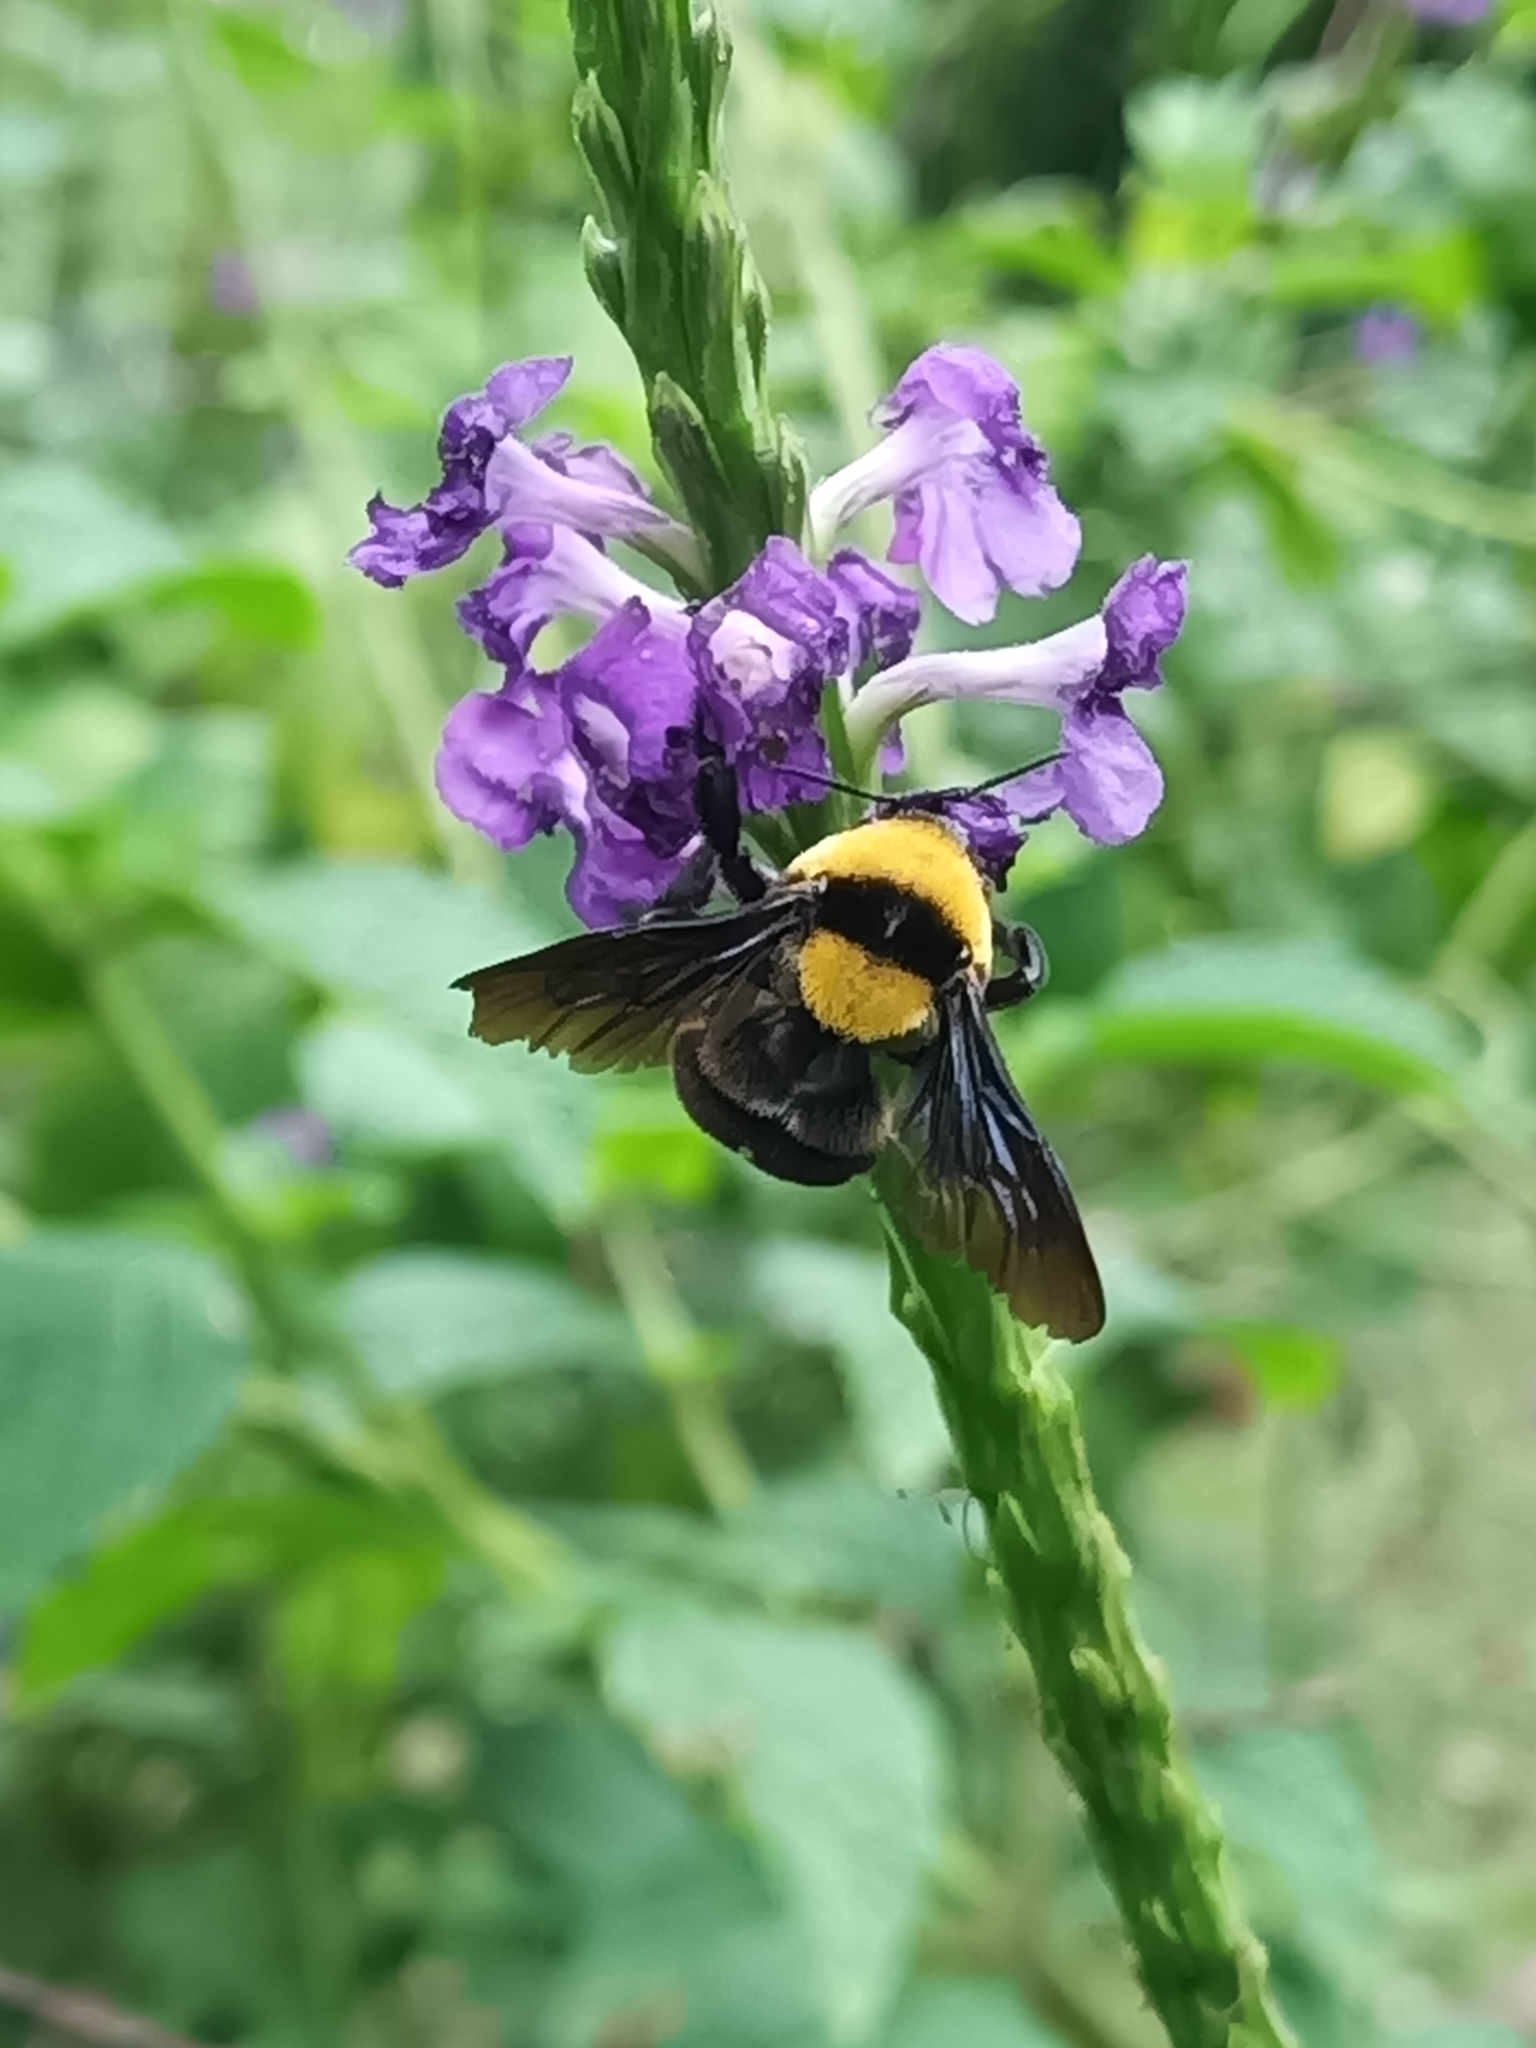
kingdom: Animalia
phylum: Arthropoda
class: Insecta
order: Hymenoptera
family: Apidae
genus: Bombus
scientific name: Bombus transversalis
